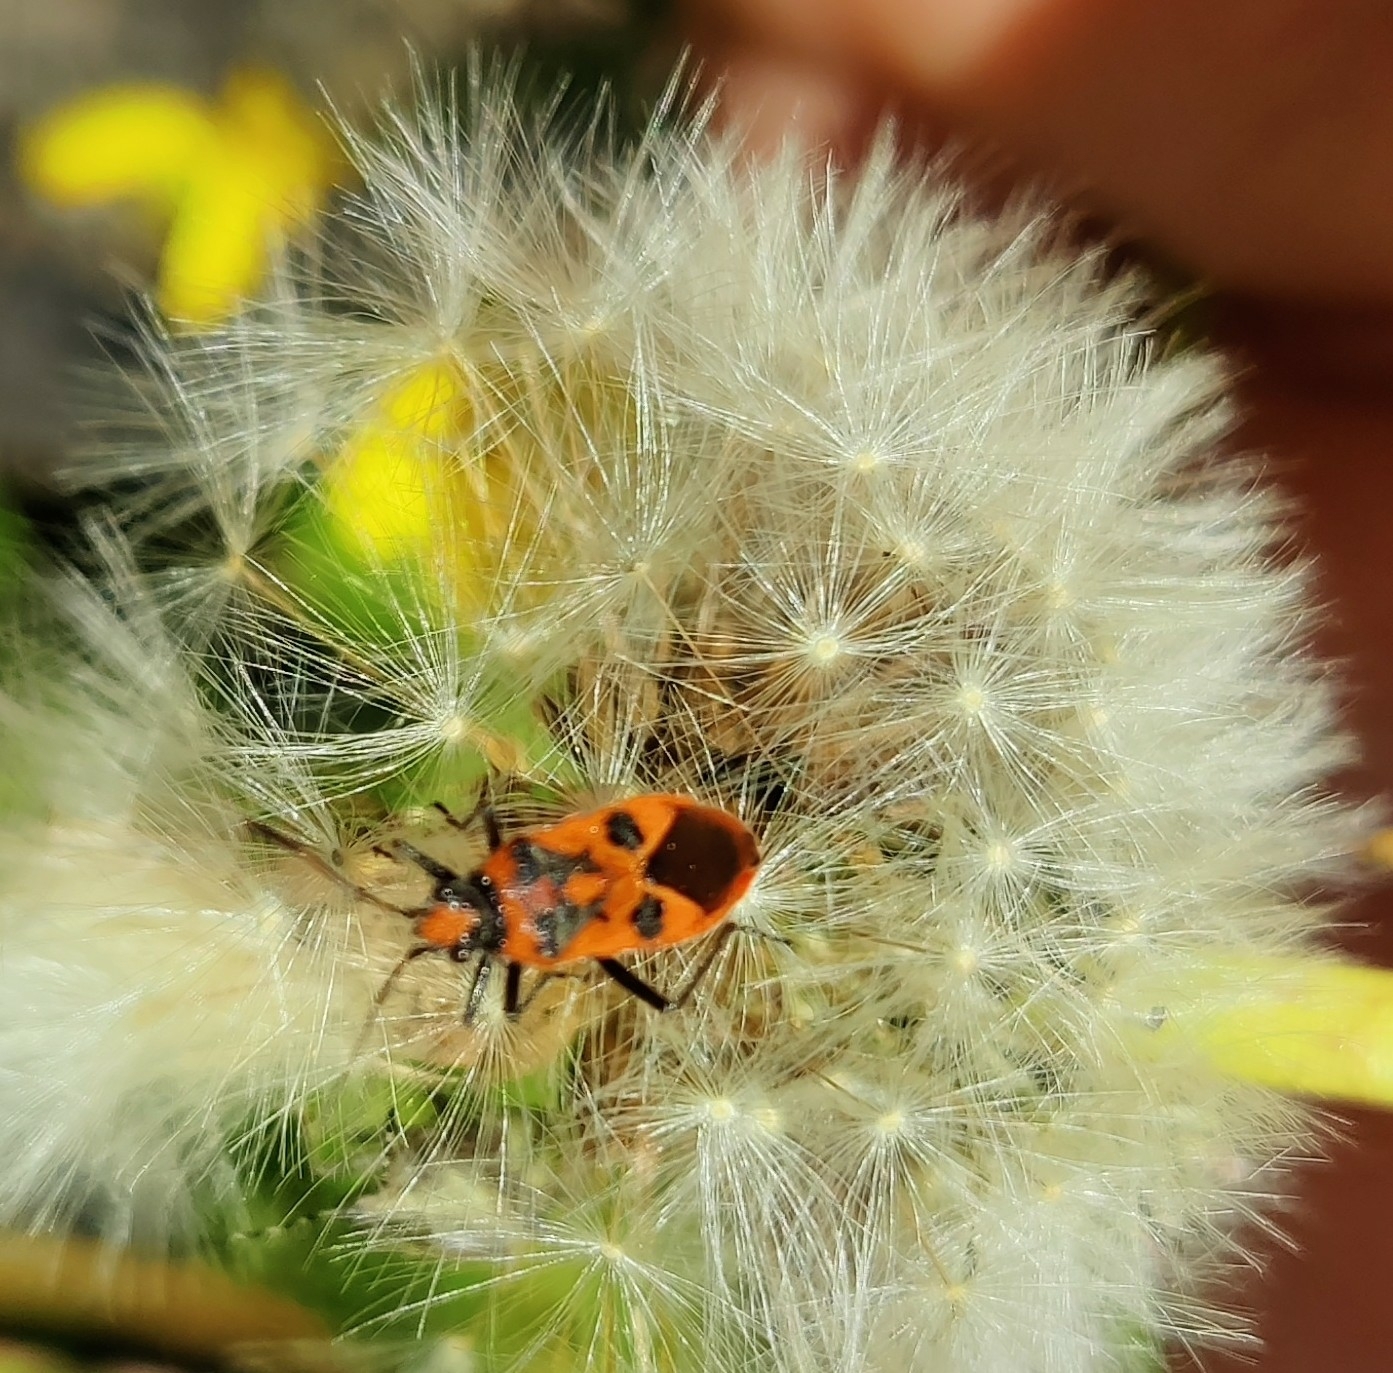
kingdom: Animalia
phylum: Arthropoda
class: Insecta
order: Hemiptera
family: Rhopalidae
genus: Corizus
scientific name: Corizus hyoscyami
